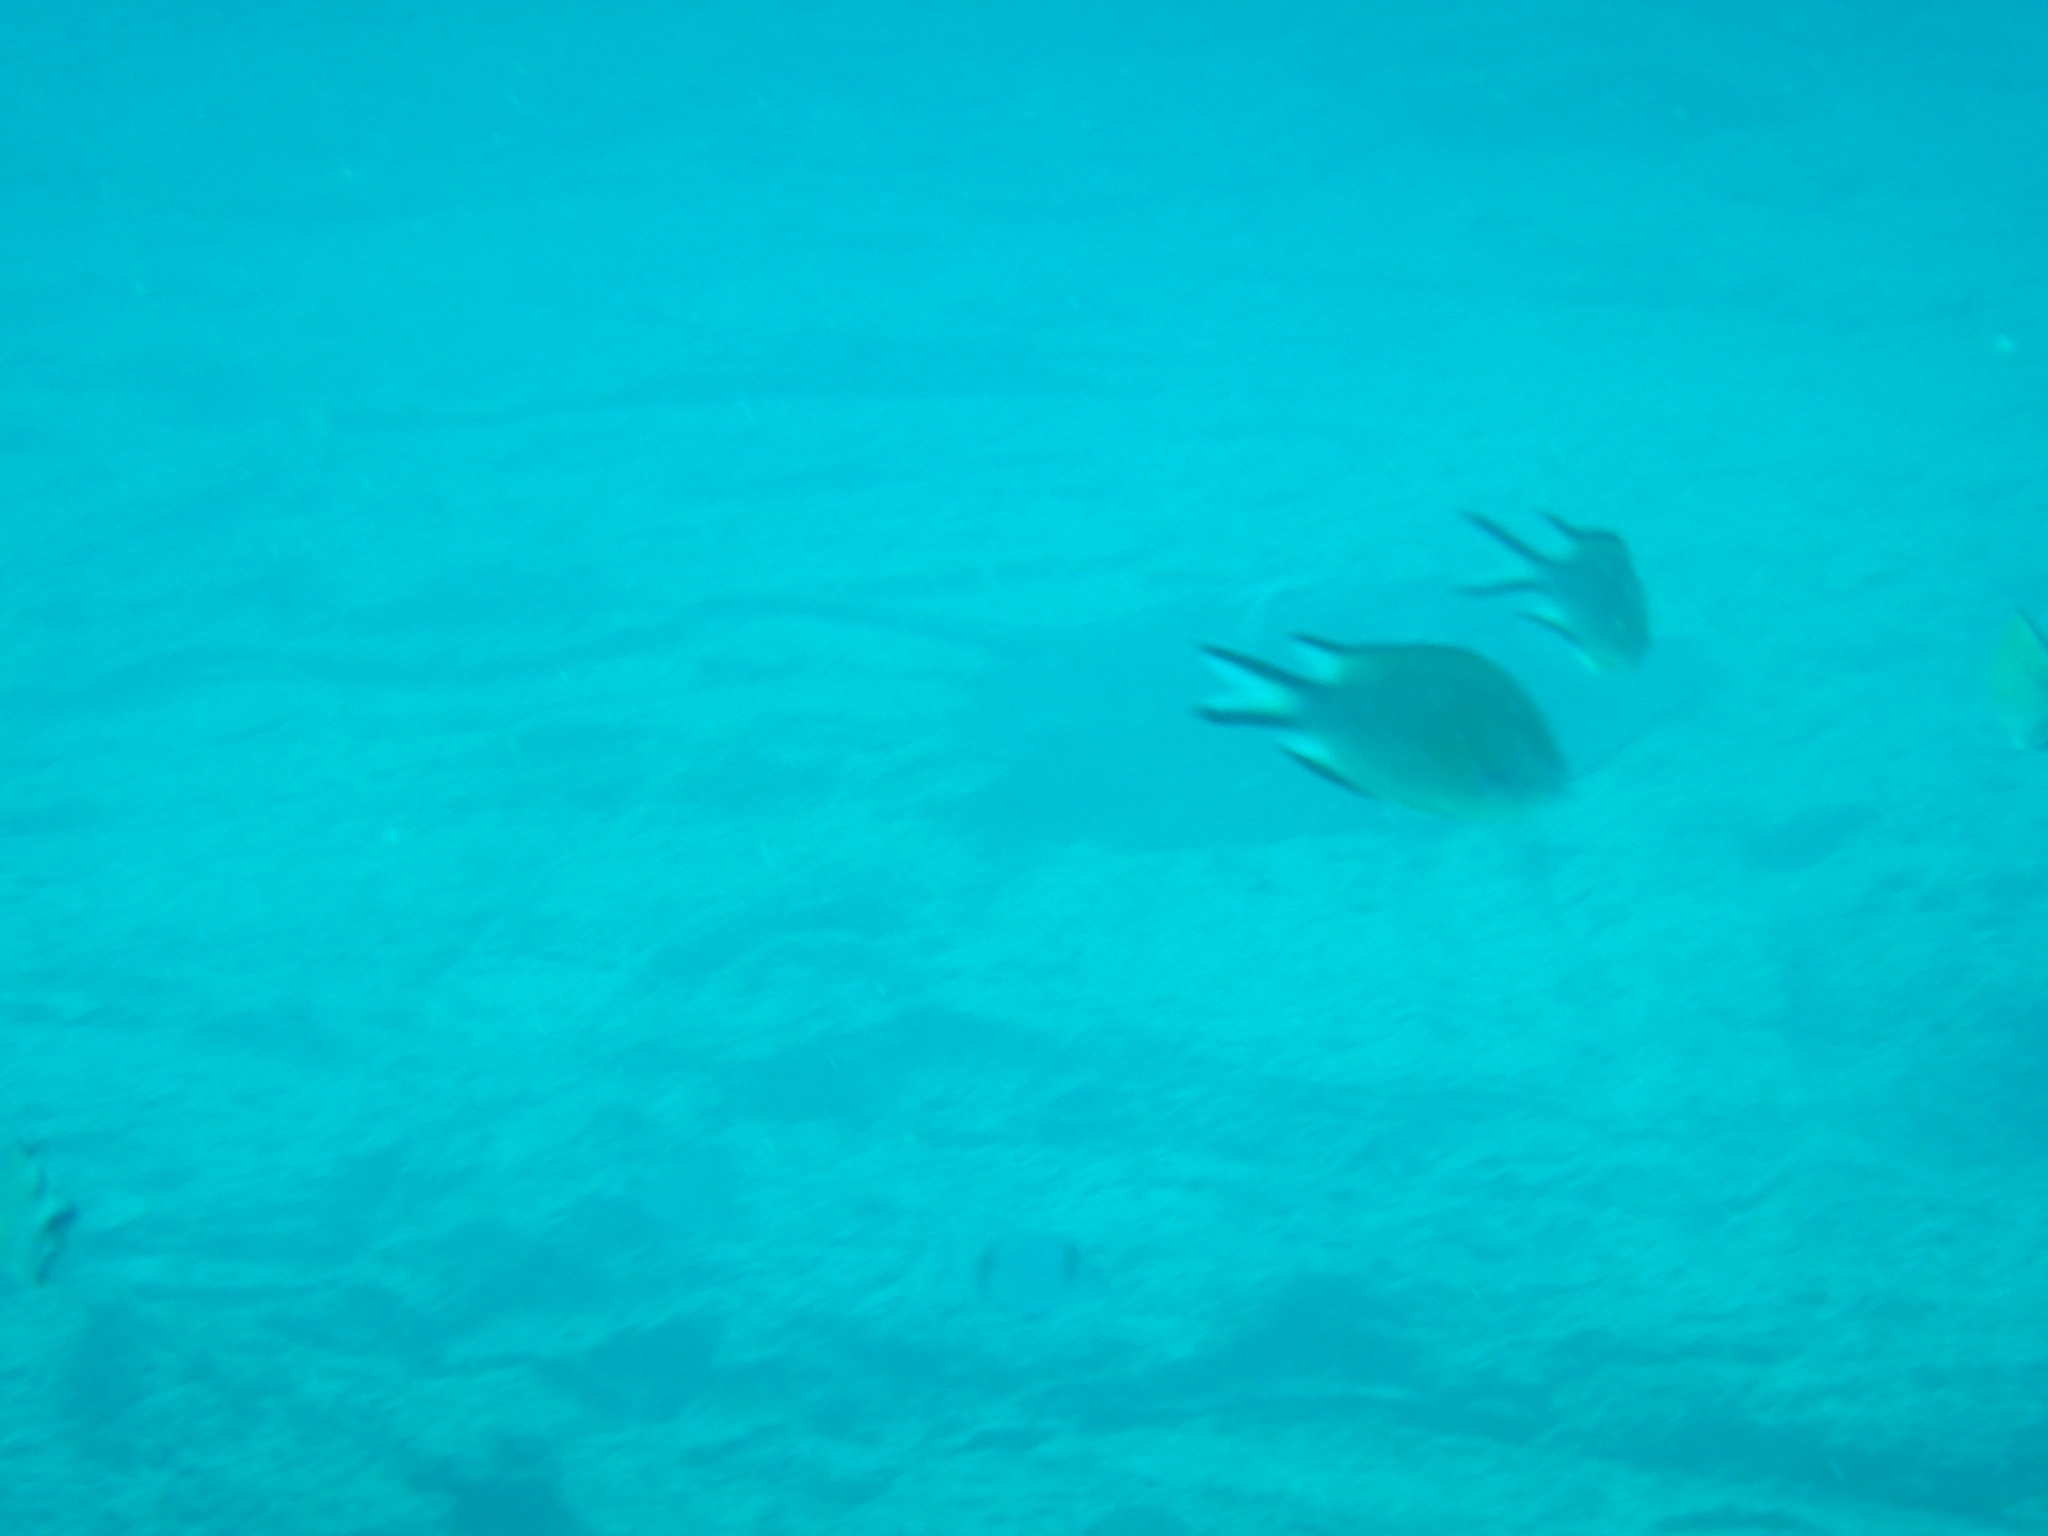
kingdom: Animalia
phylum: Chordata
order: Perciformes
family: Pomacentridae
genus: Chromis
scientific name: Chromis limbata
